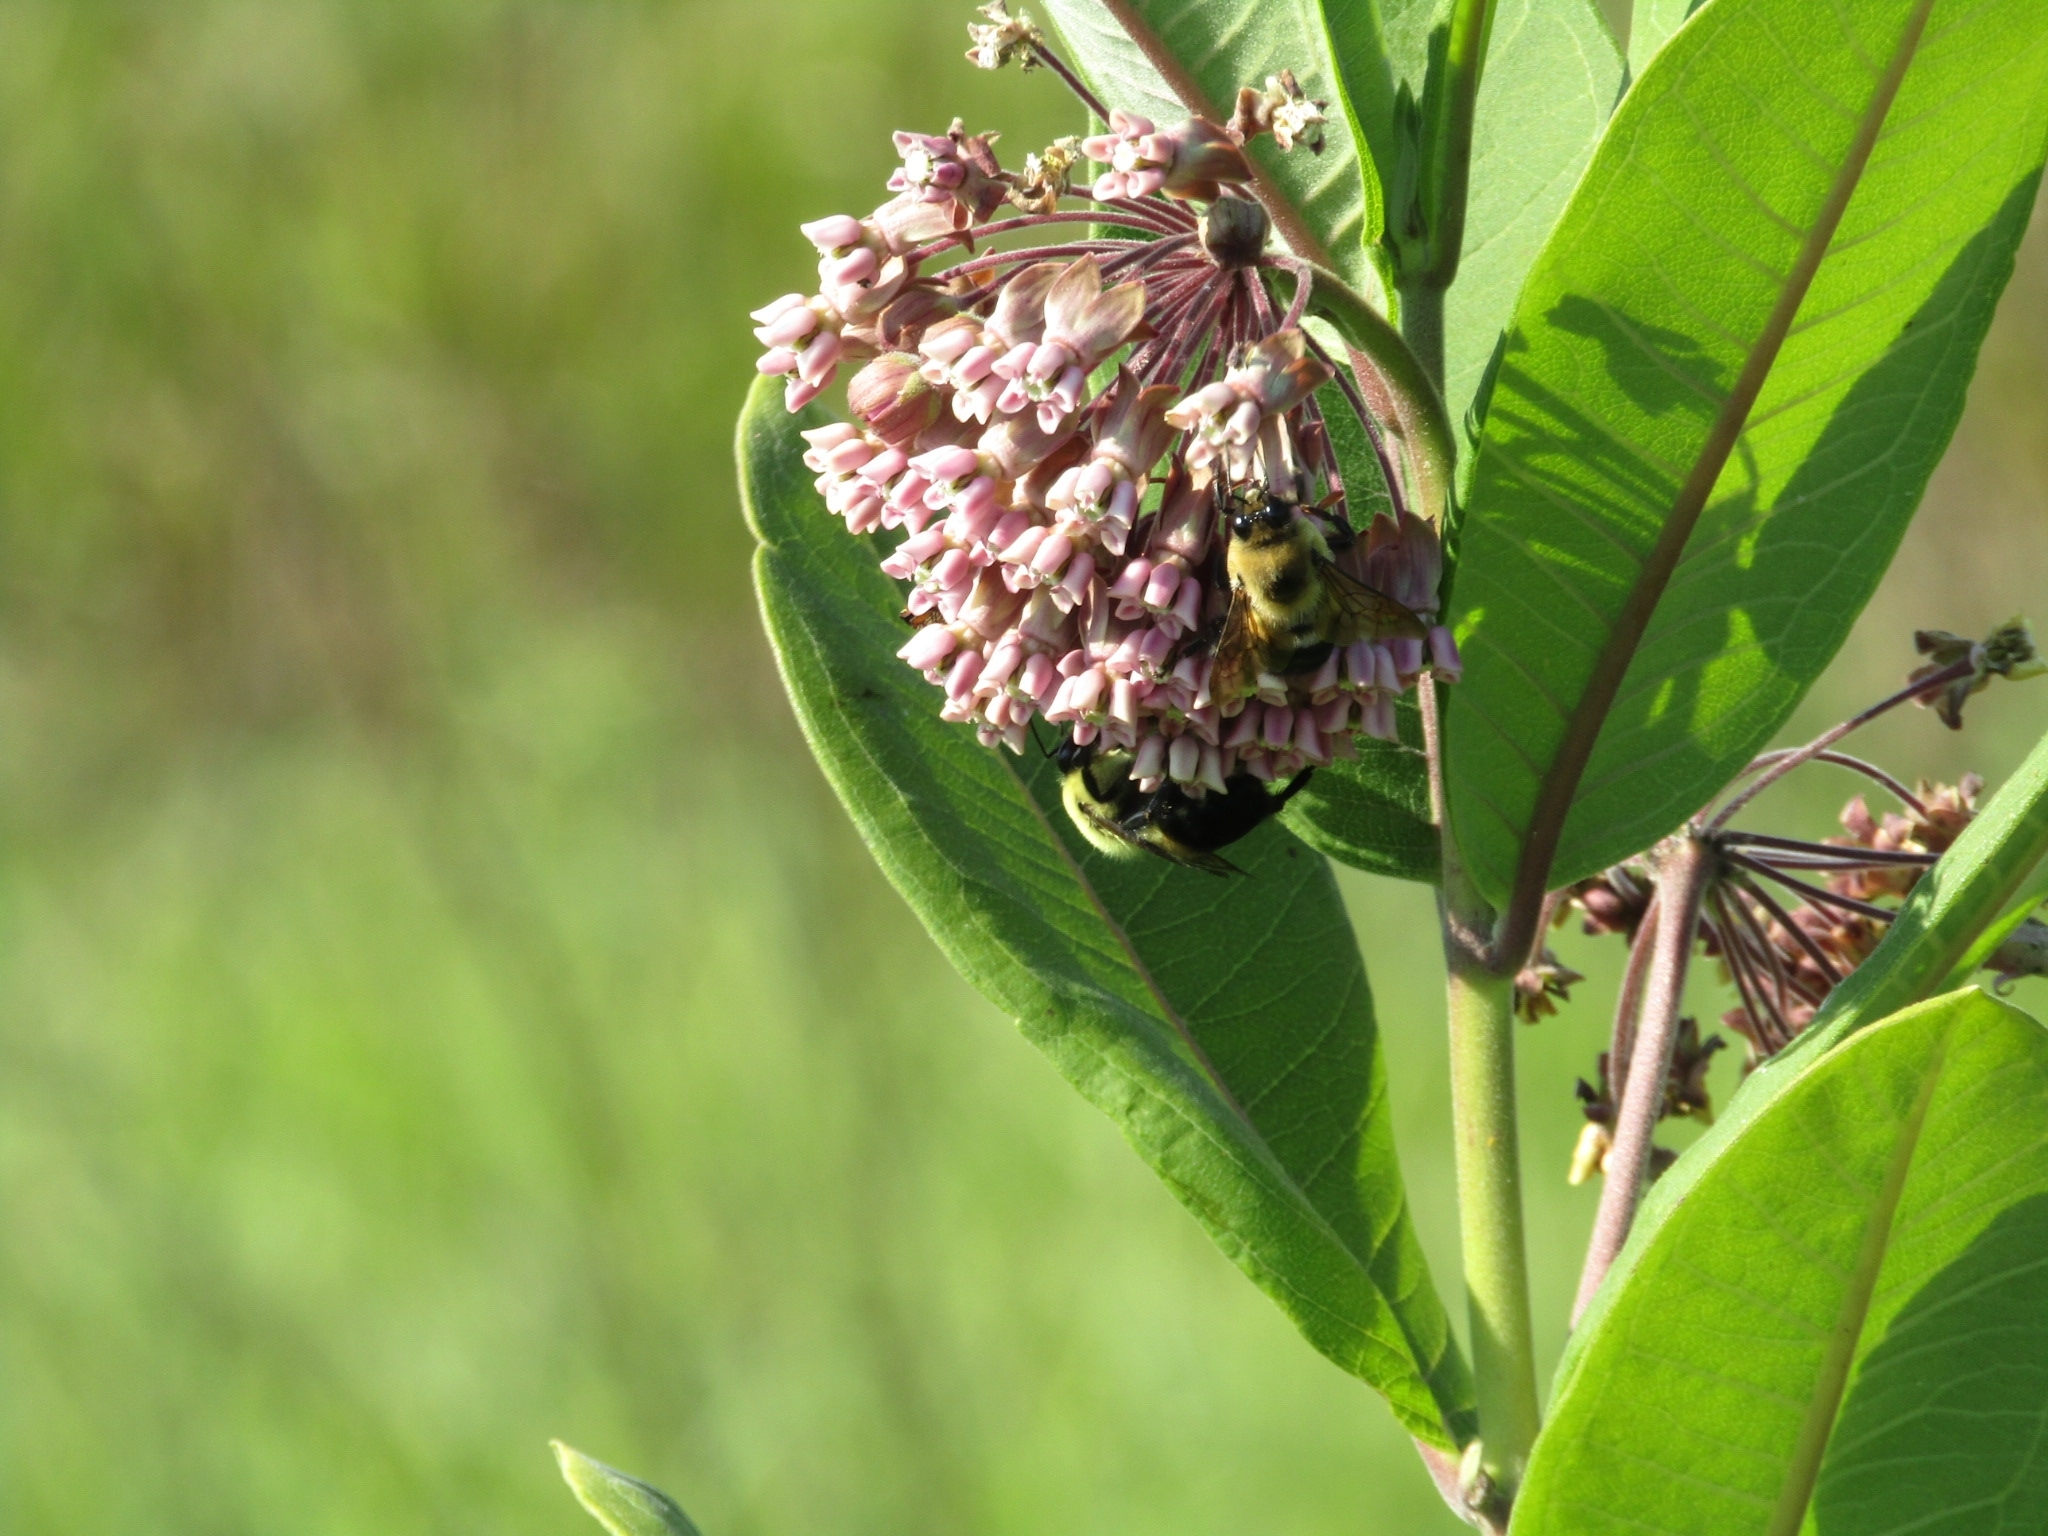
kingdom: Animalia
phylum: Arthropoda
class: Insecta
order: Hymenoptera
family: Apidae
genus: Bombus
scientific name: Bombus griseocollis
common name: Brown-belted bumble bee
